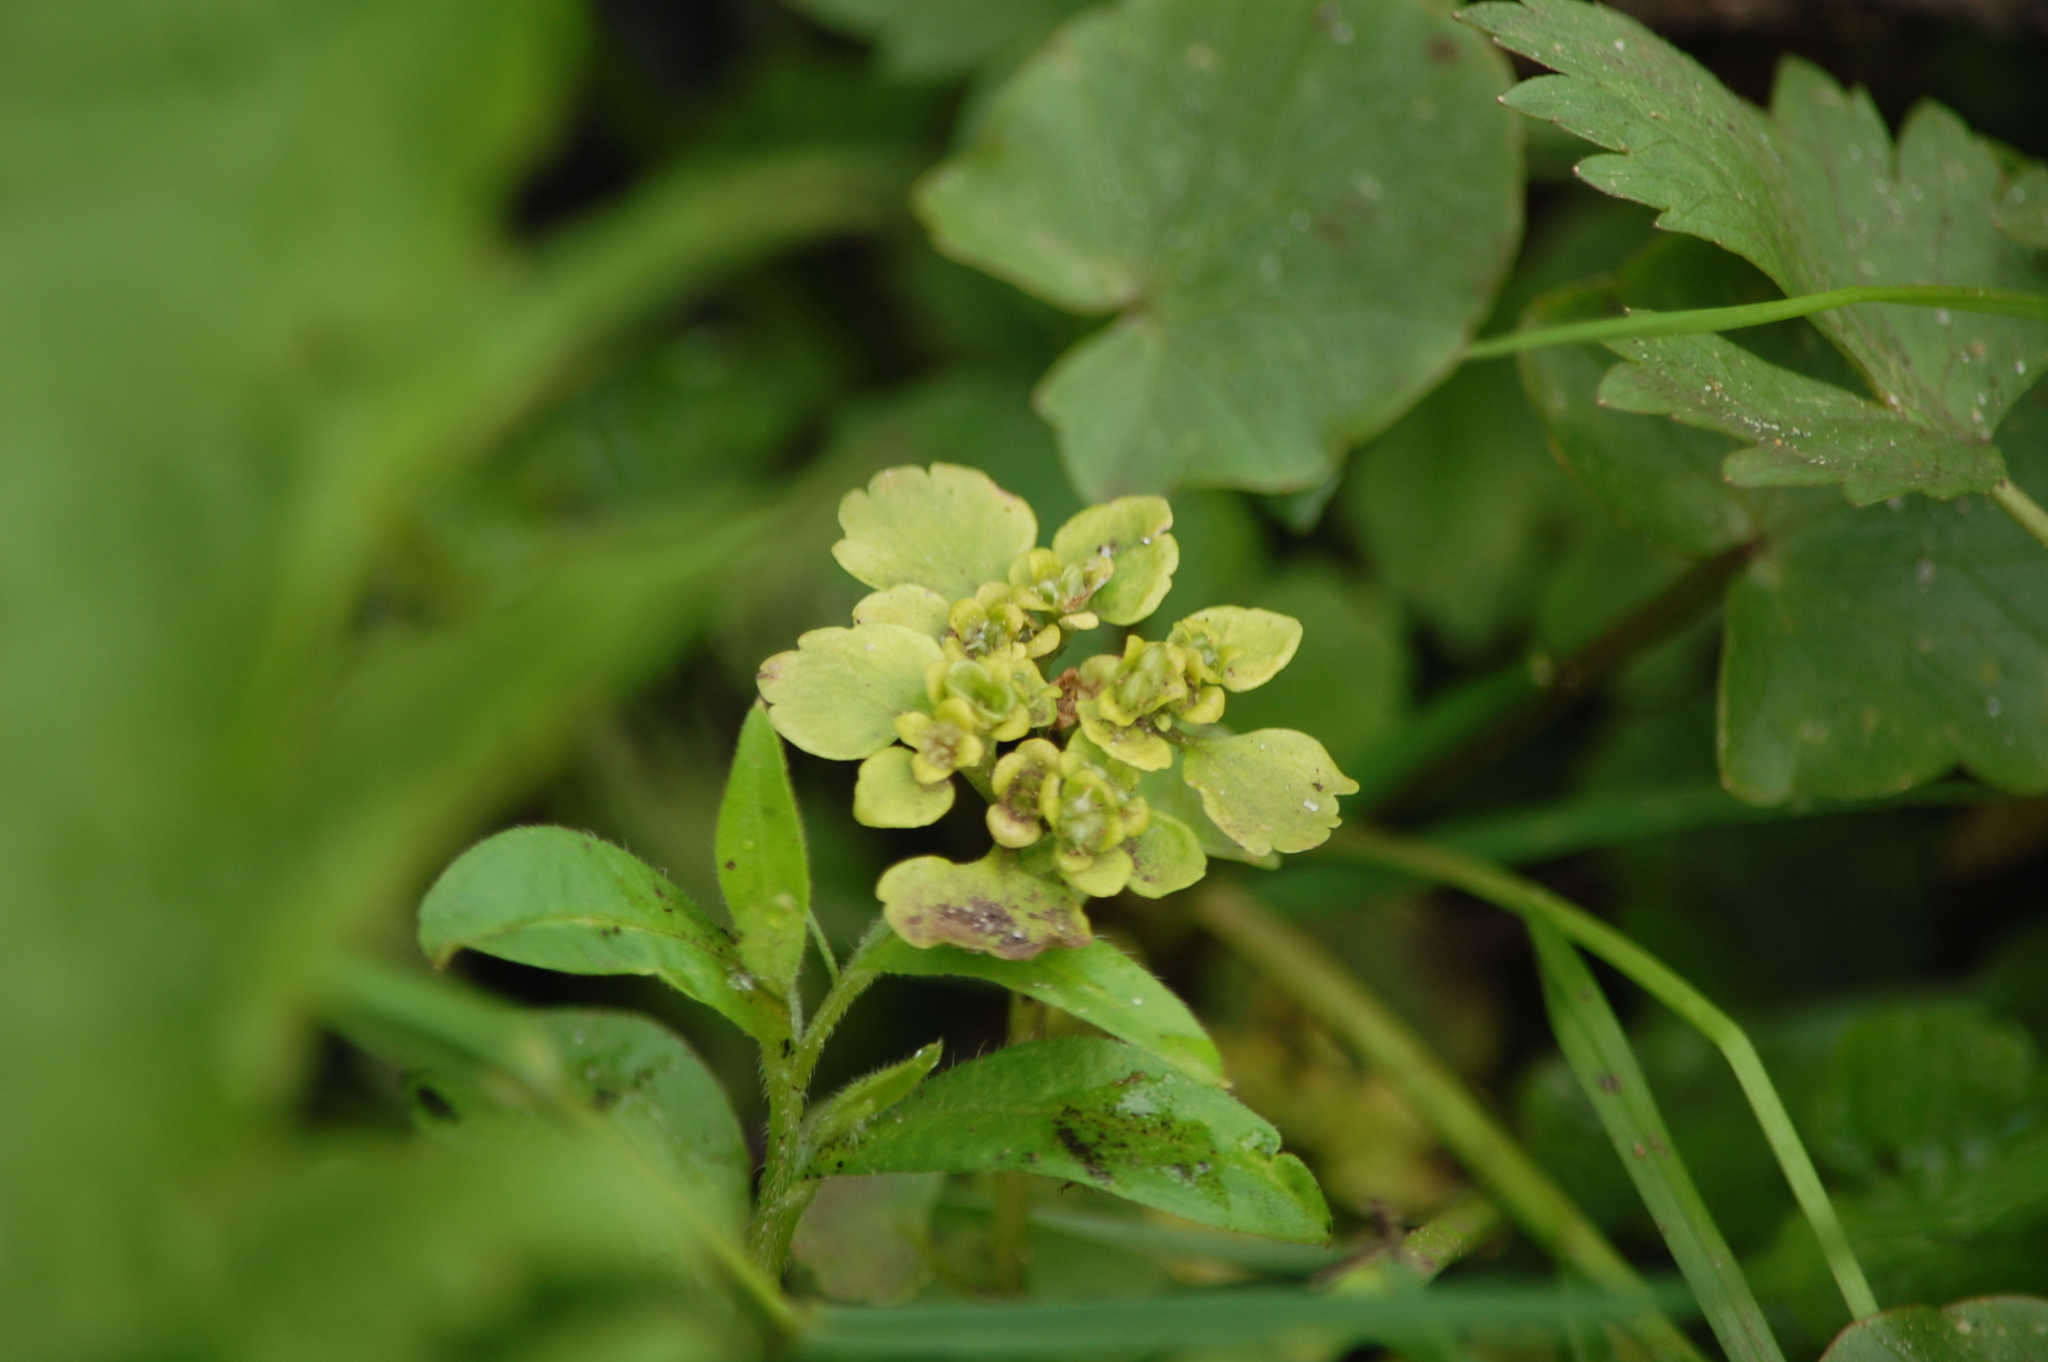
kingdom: Plantae
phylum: Tracheophyta
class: Magnoliopsida
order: Saxifragales
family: Saxifragaceae
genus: Chrysosplenium
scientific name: Chrysosplenium alternifolium
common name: Alternate-leaved golden-saxifrage
